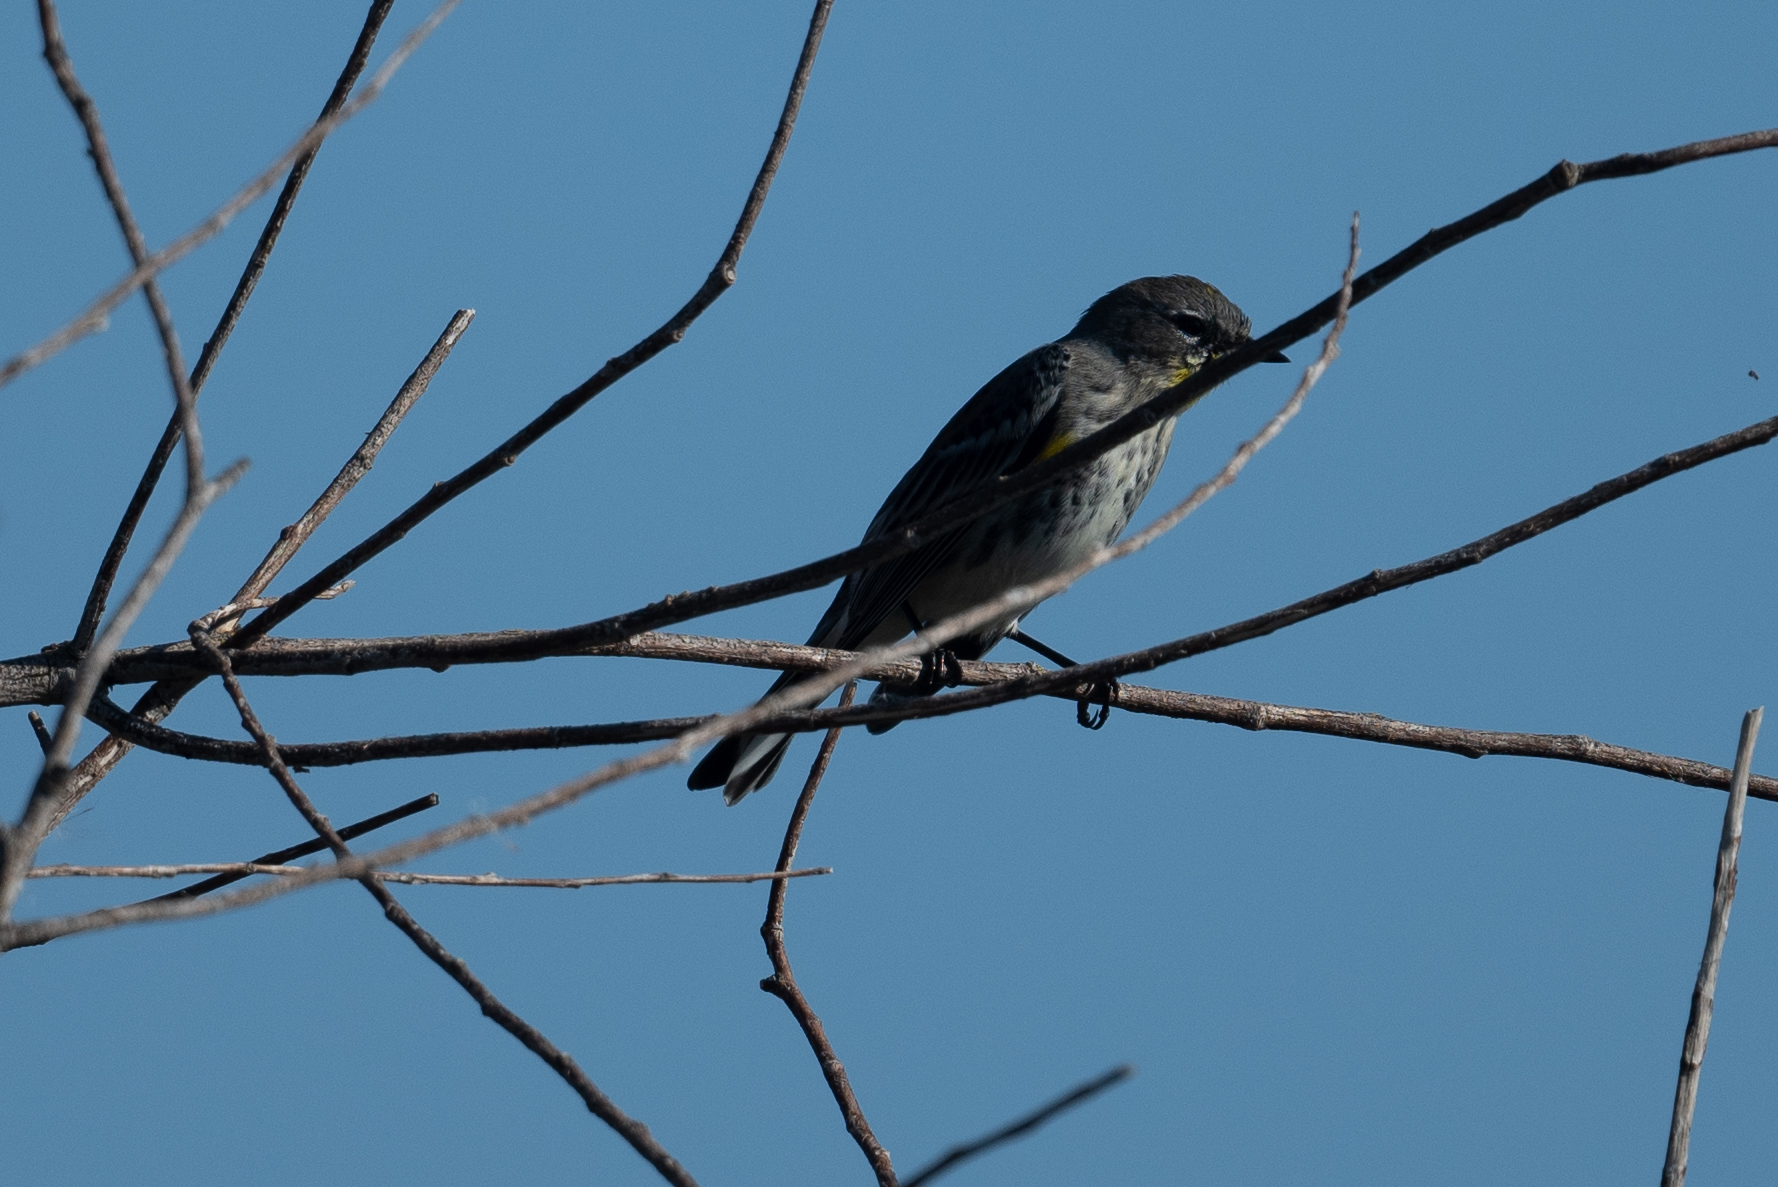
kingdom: Animalia
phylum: Chordata
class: Aves
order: Passeriformes
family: Parulidae
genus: Setophaga
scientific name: Setophaga coronata
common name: Myrtle warbler
